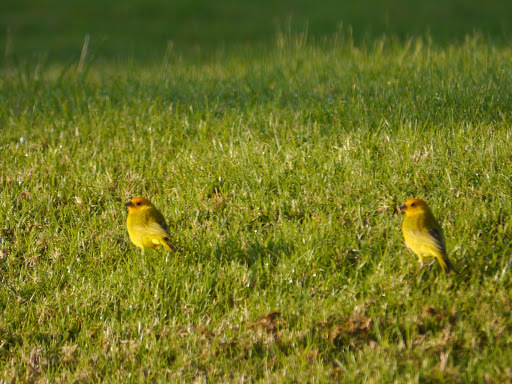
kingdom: Animalia
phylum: Chordata
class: Aves
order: Passeriformes
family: Thraupidae
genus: Sicalis
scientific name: Sicalis flaveola
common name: Saffron finch
